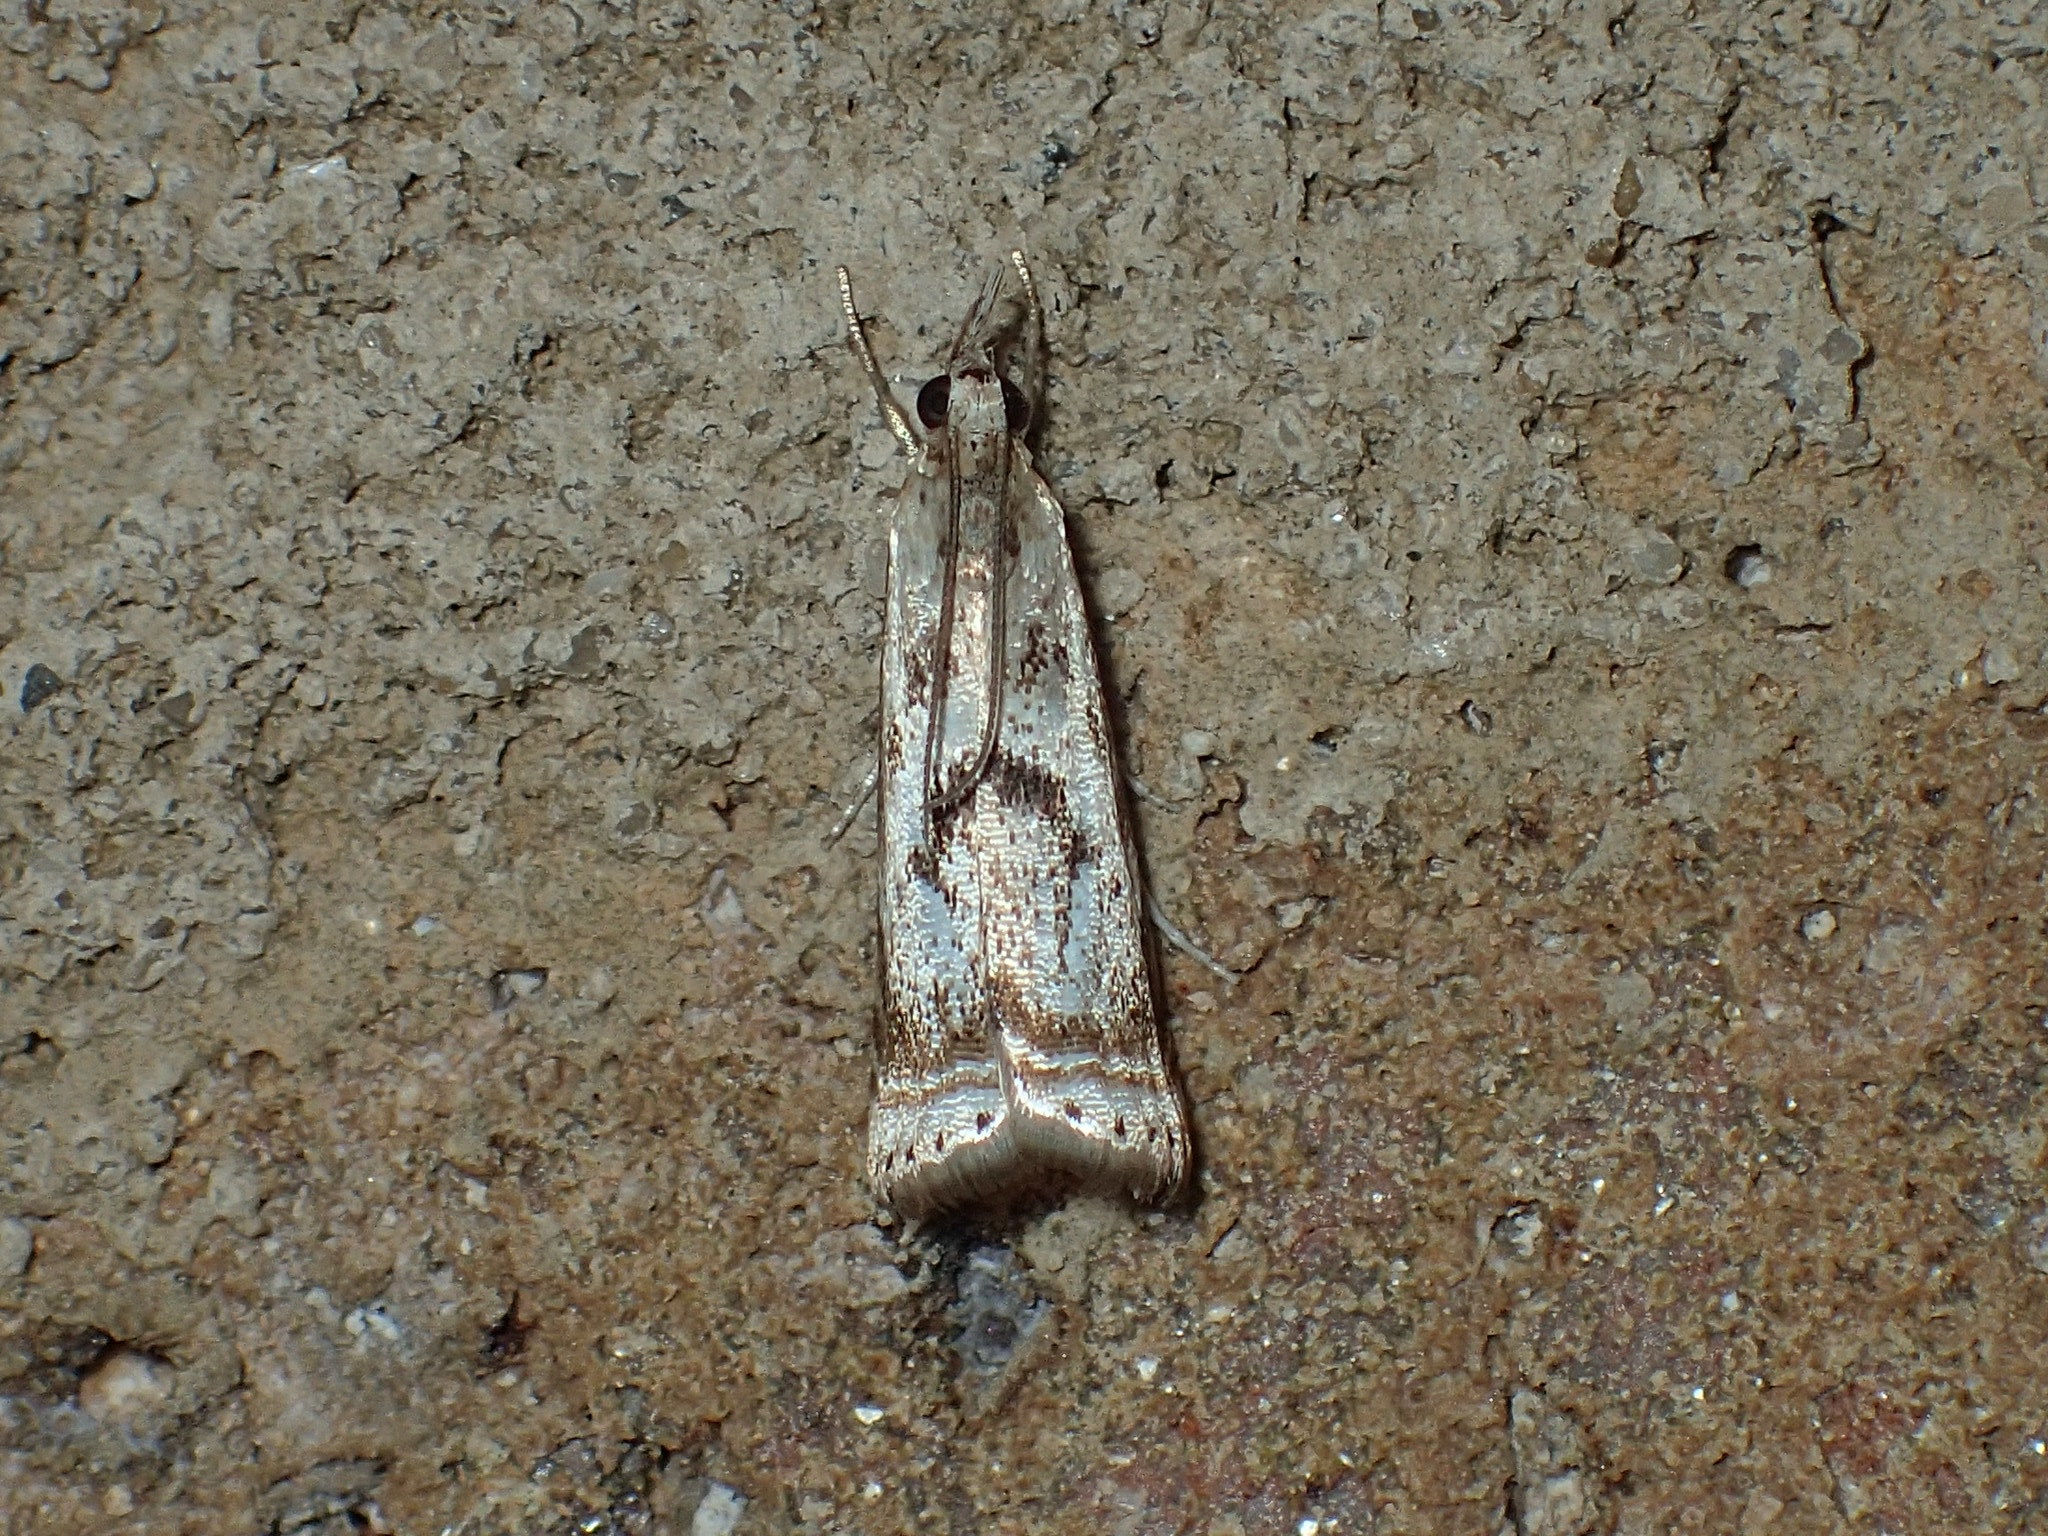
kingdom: Animalia
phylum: Arthropoda
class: Insecta
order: Lepidoptera
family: Crambidae
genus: Microcrambus
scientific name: Microcrambus elegans
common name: Elegant grass-veneer
